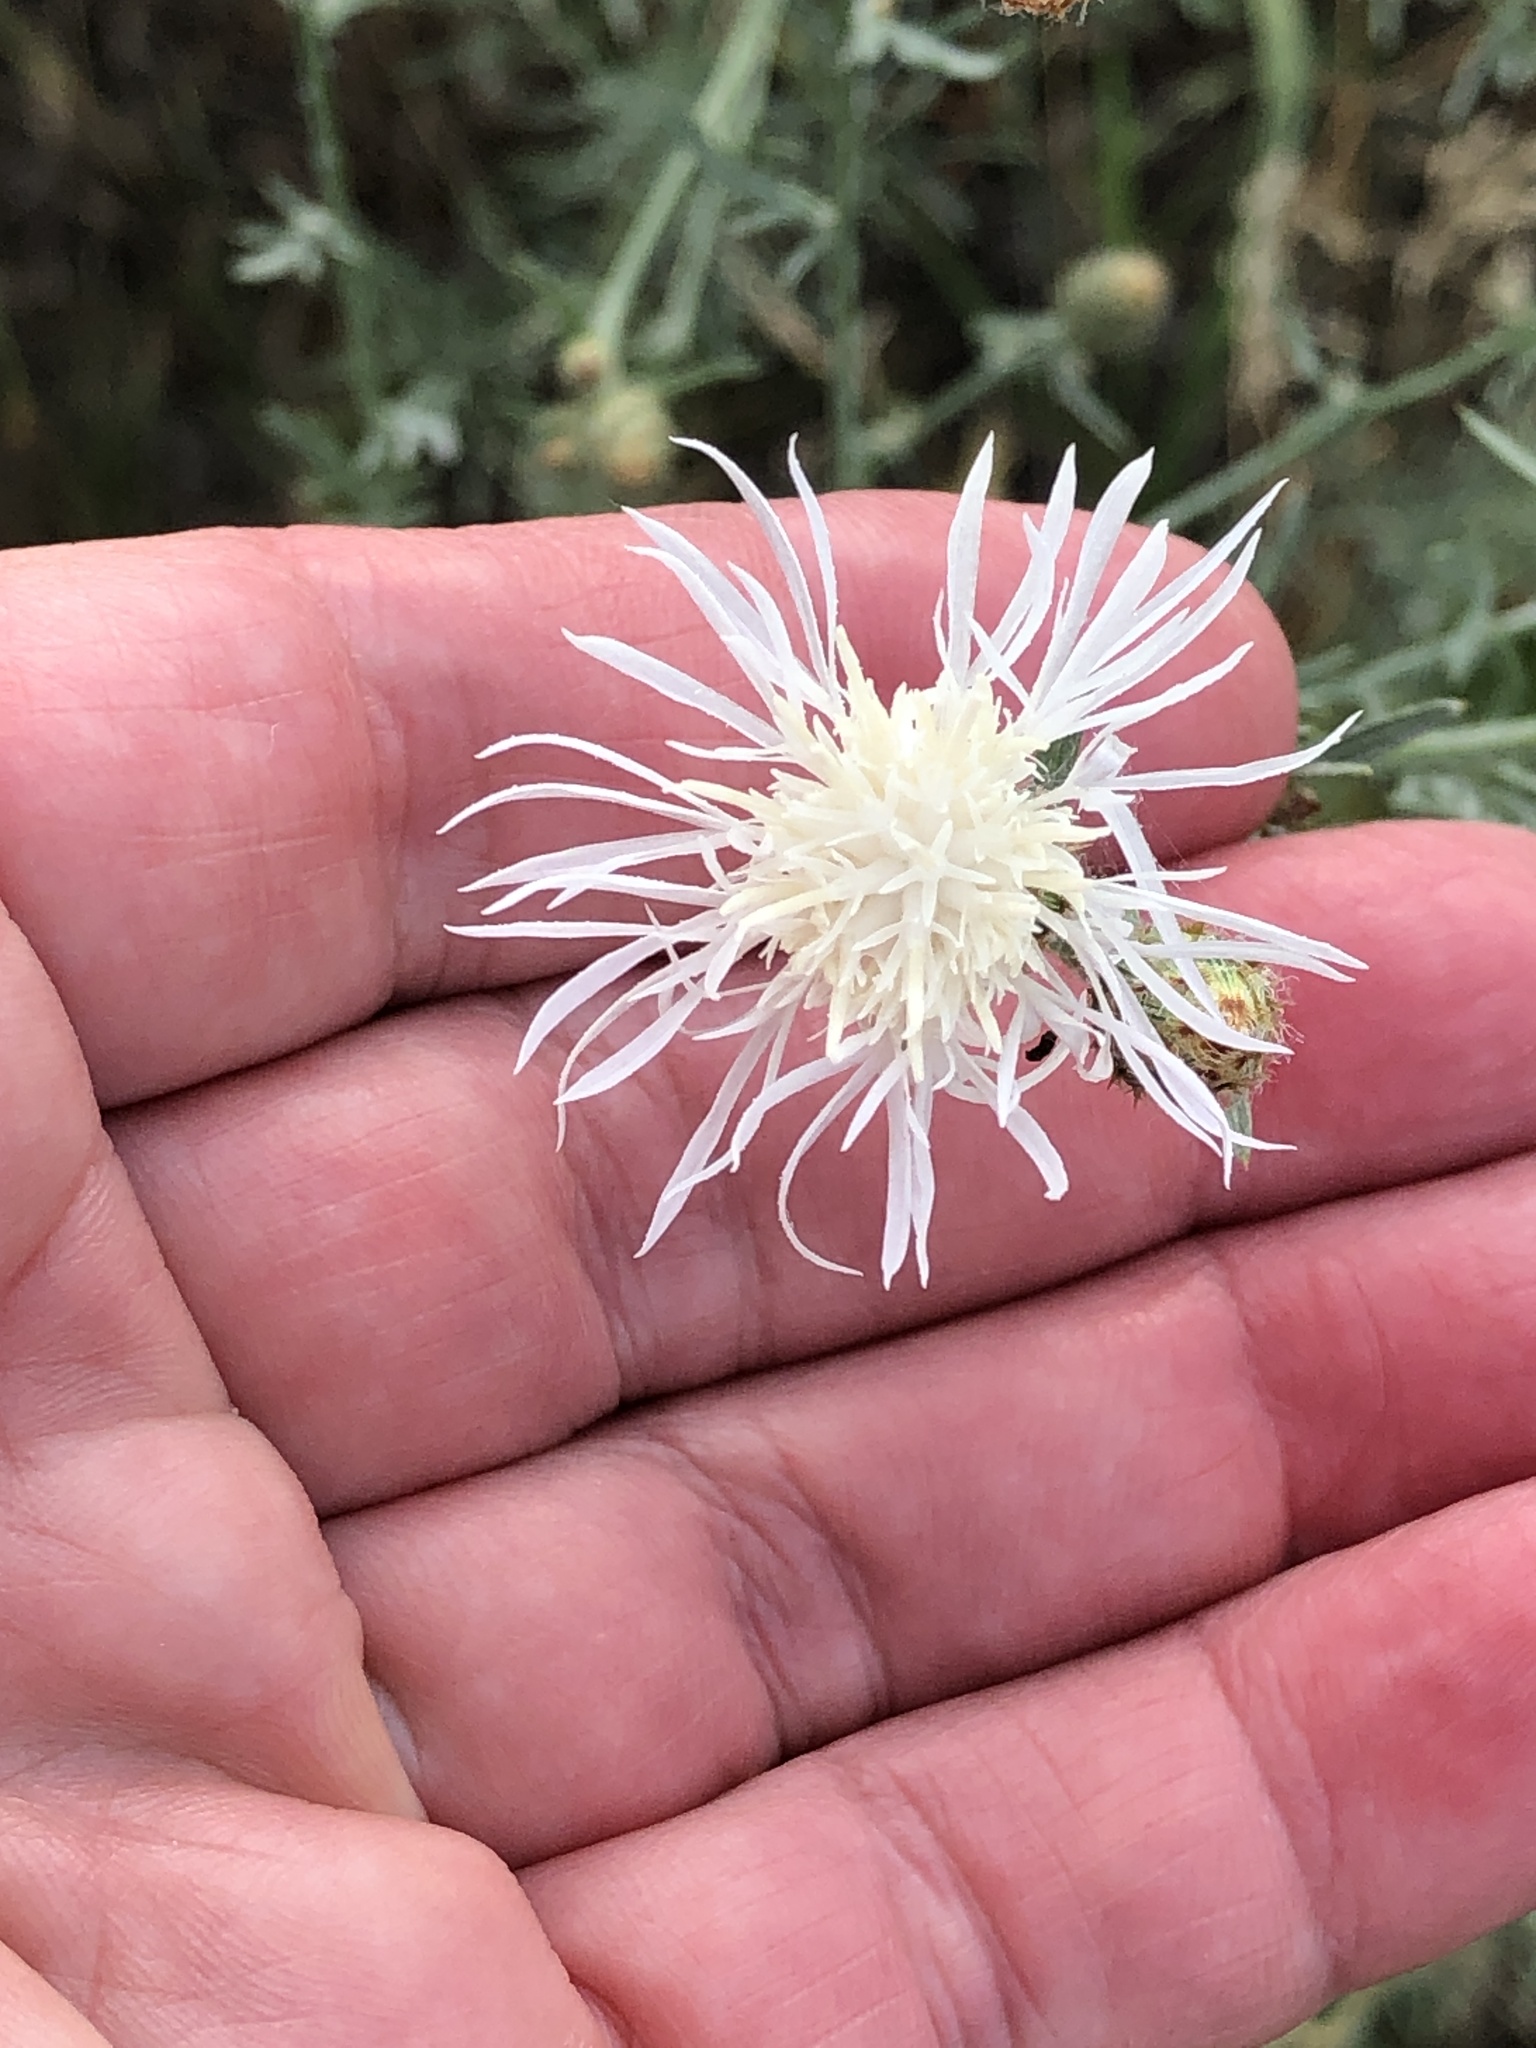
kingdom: Plantae
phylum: Tracheophyta
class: Magnoliopsida
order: Asterales
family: Asteraceae
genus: Centaurea
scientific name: Centaurea stoebe
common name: Spotted knapweed
